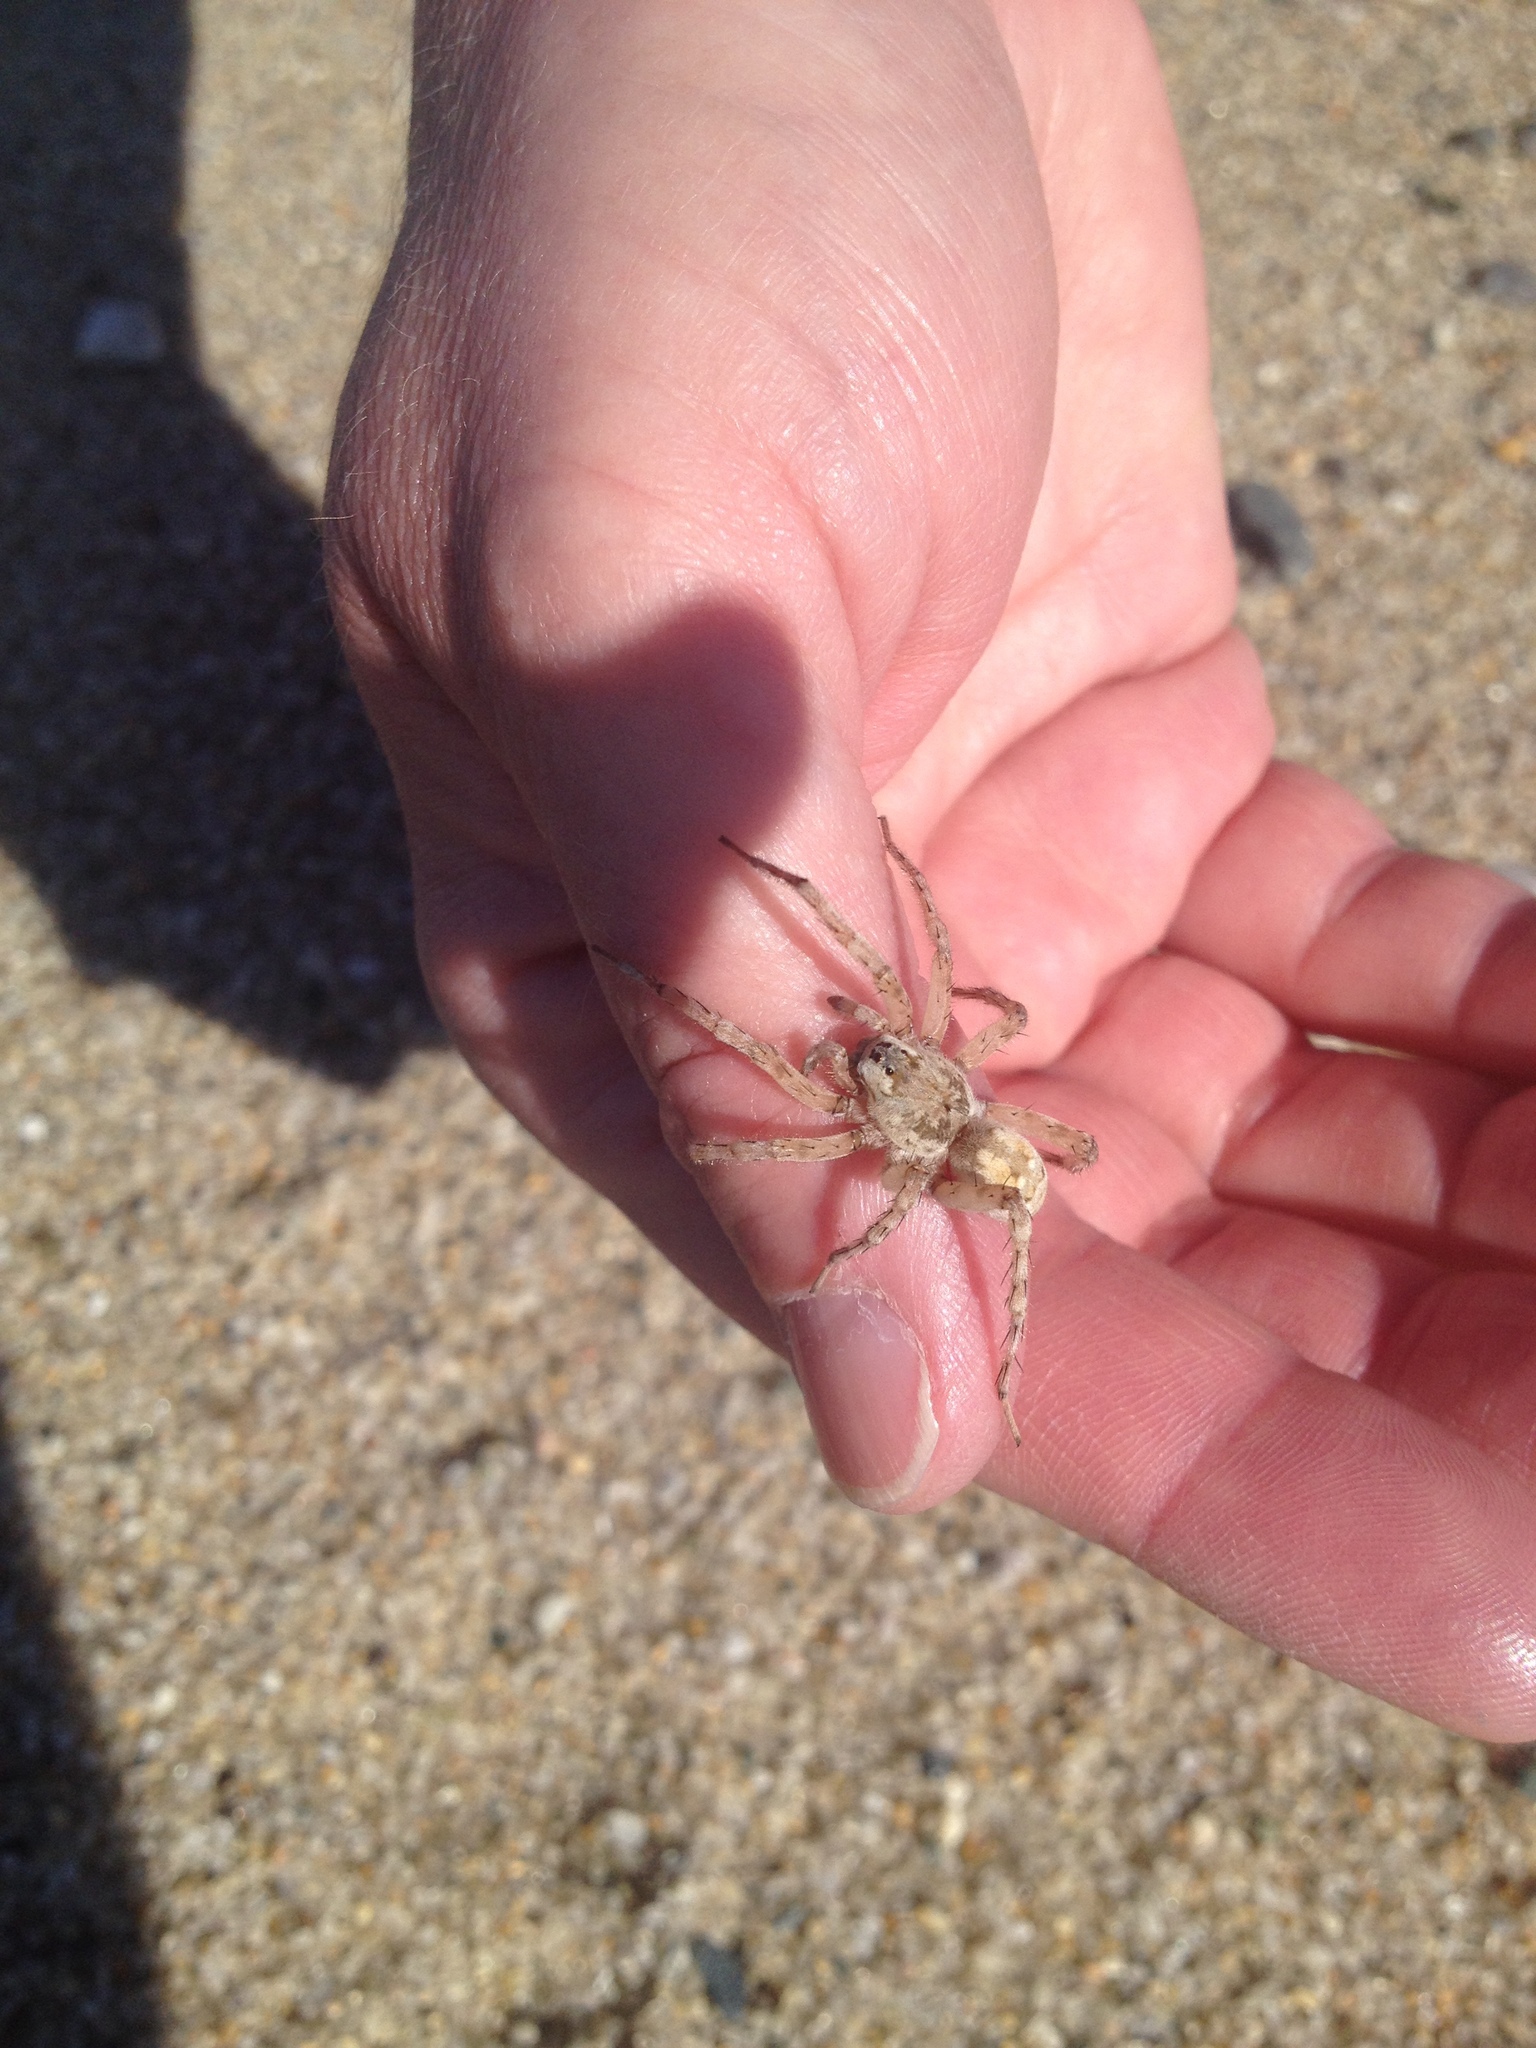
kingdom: Animalia
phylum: Arthropoda
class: Arachnida
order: Araneae
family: Lycosidae
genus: Arctosa
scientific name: Arctosa littoralis
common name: Wolf spiders
